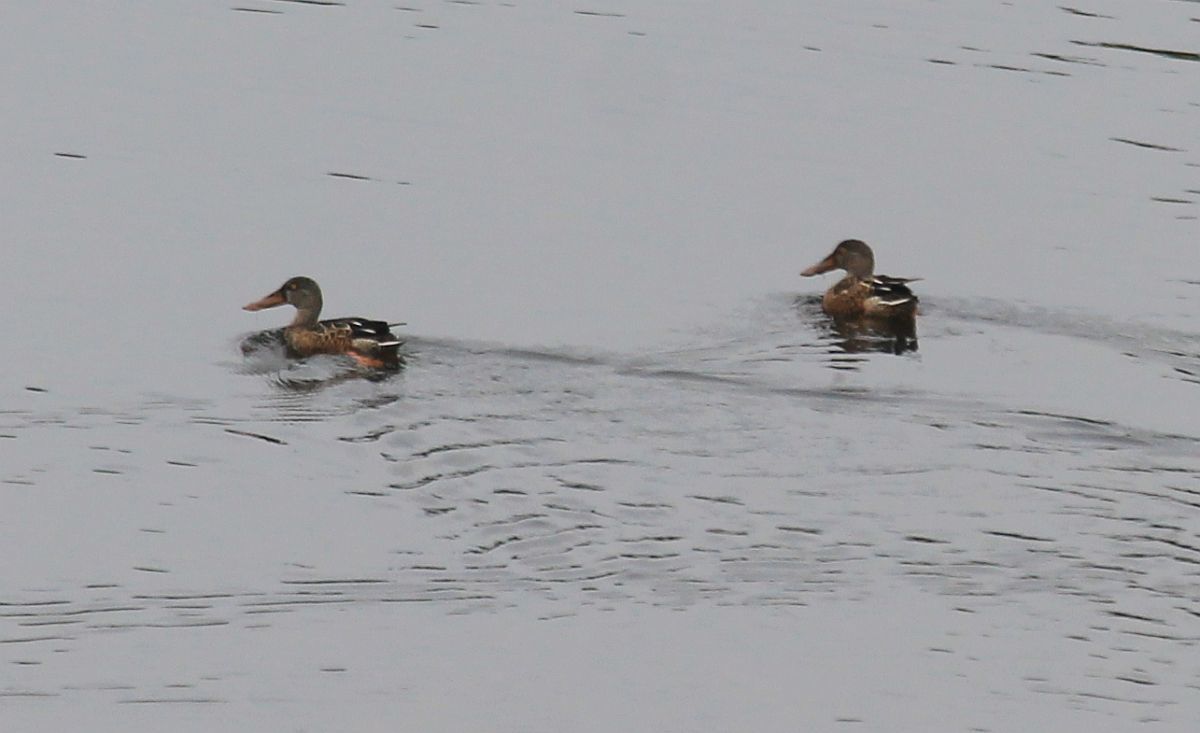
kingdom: Animalia
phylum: Chordata
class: Aves
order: Anseriformes
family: Anatidae
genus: Spatula
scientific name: Spatula clypeata
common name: Northern shoveler
